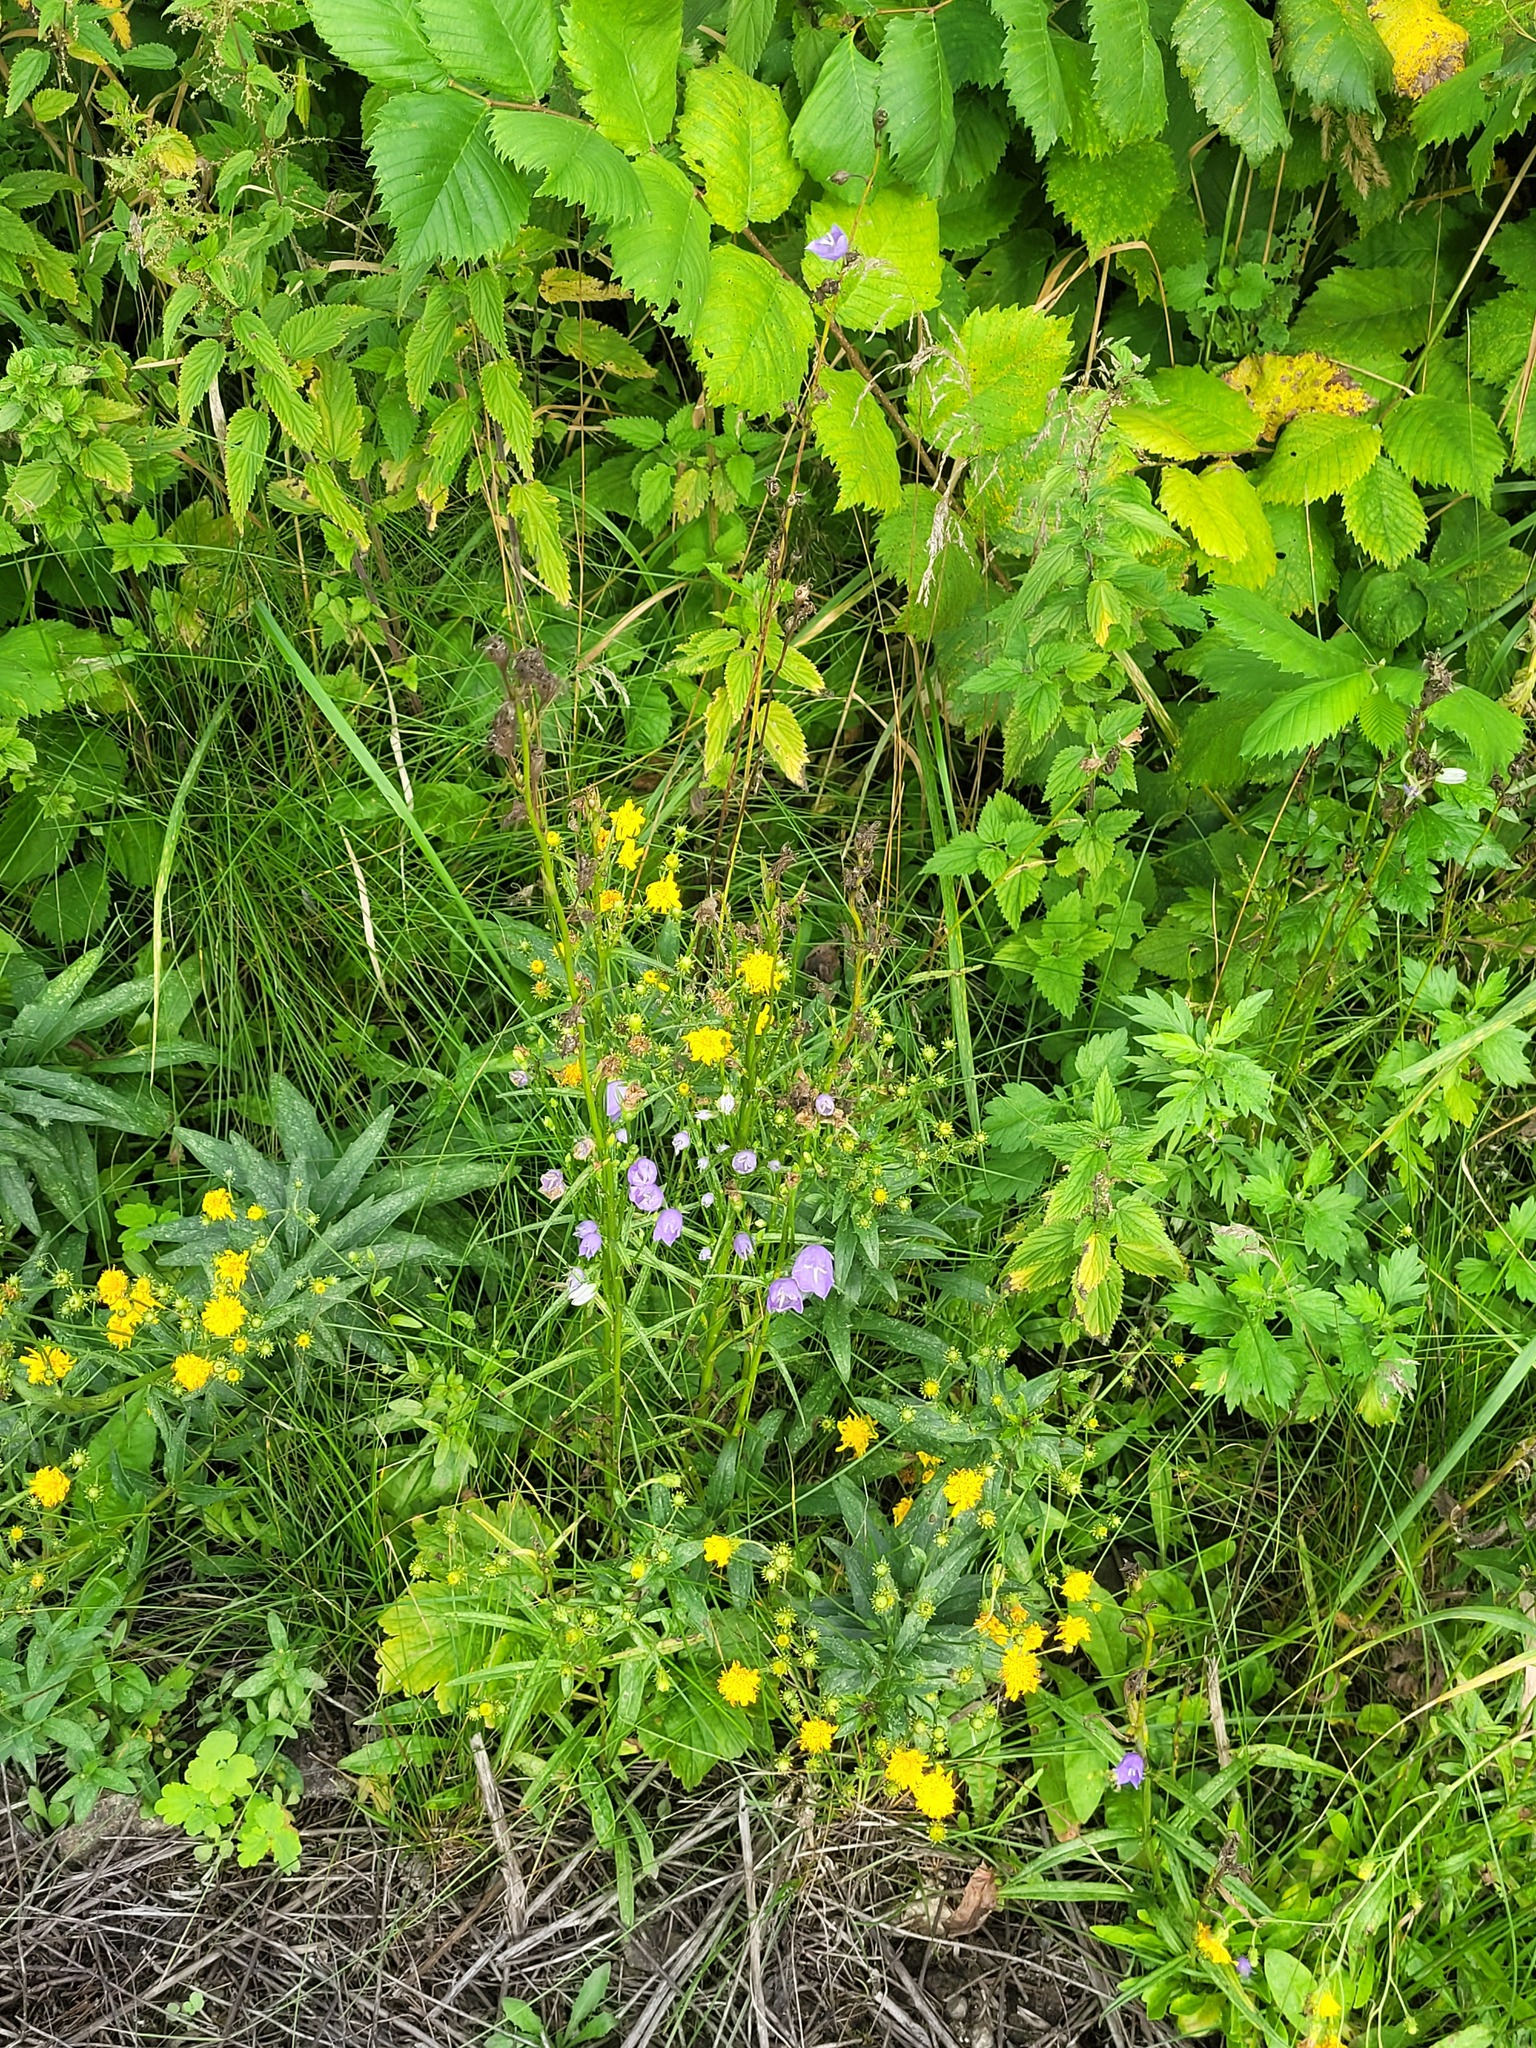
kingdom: Plantae
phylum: Tracheophyta
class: Magnoliopsida
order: Asterales
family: Asteraceae
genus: Hieracium
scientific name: Hieracium umbellatum
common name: Northern hawkweed
